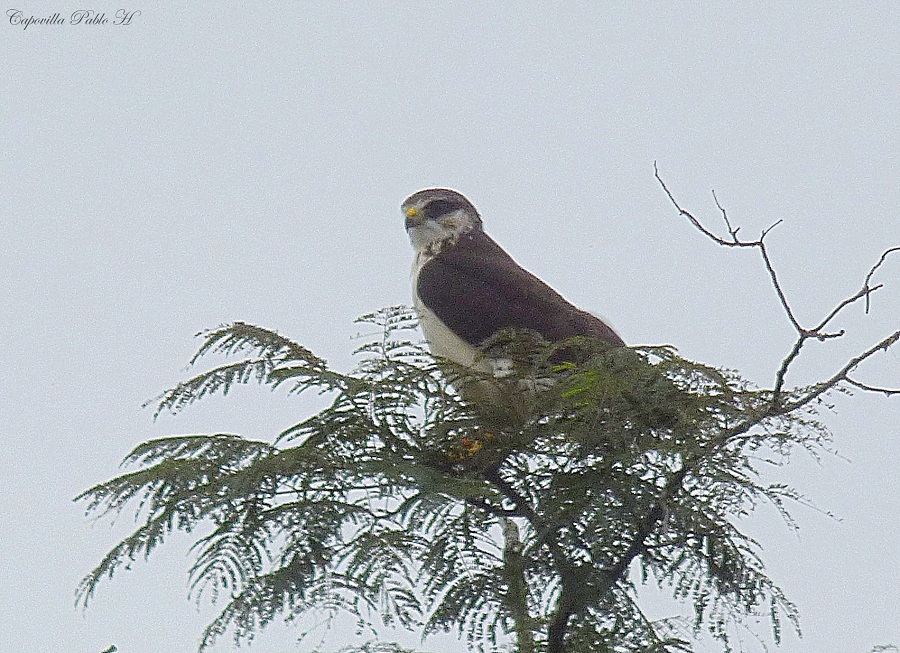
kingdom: Animalia
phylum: Chordata
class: Aves
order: Accipitriformes
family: Accipitridae
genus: Buteo
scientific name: Buteo brachyurus
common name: Short-tailed hawk
